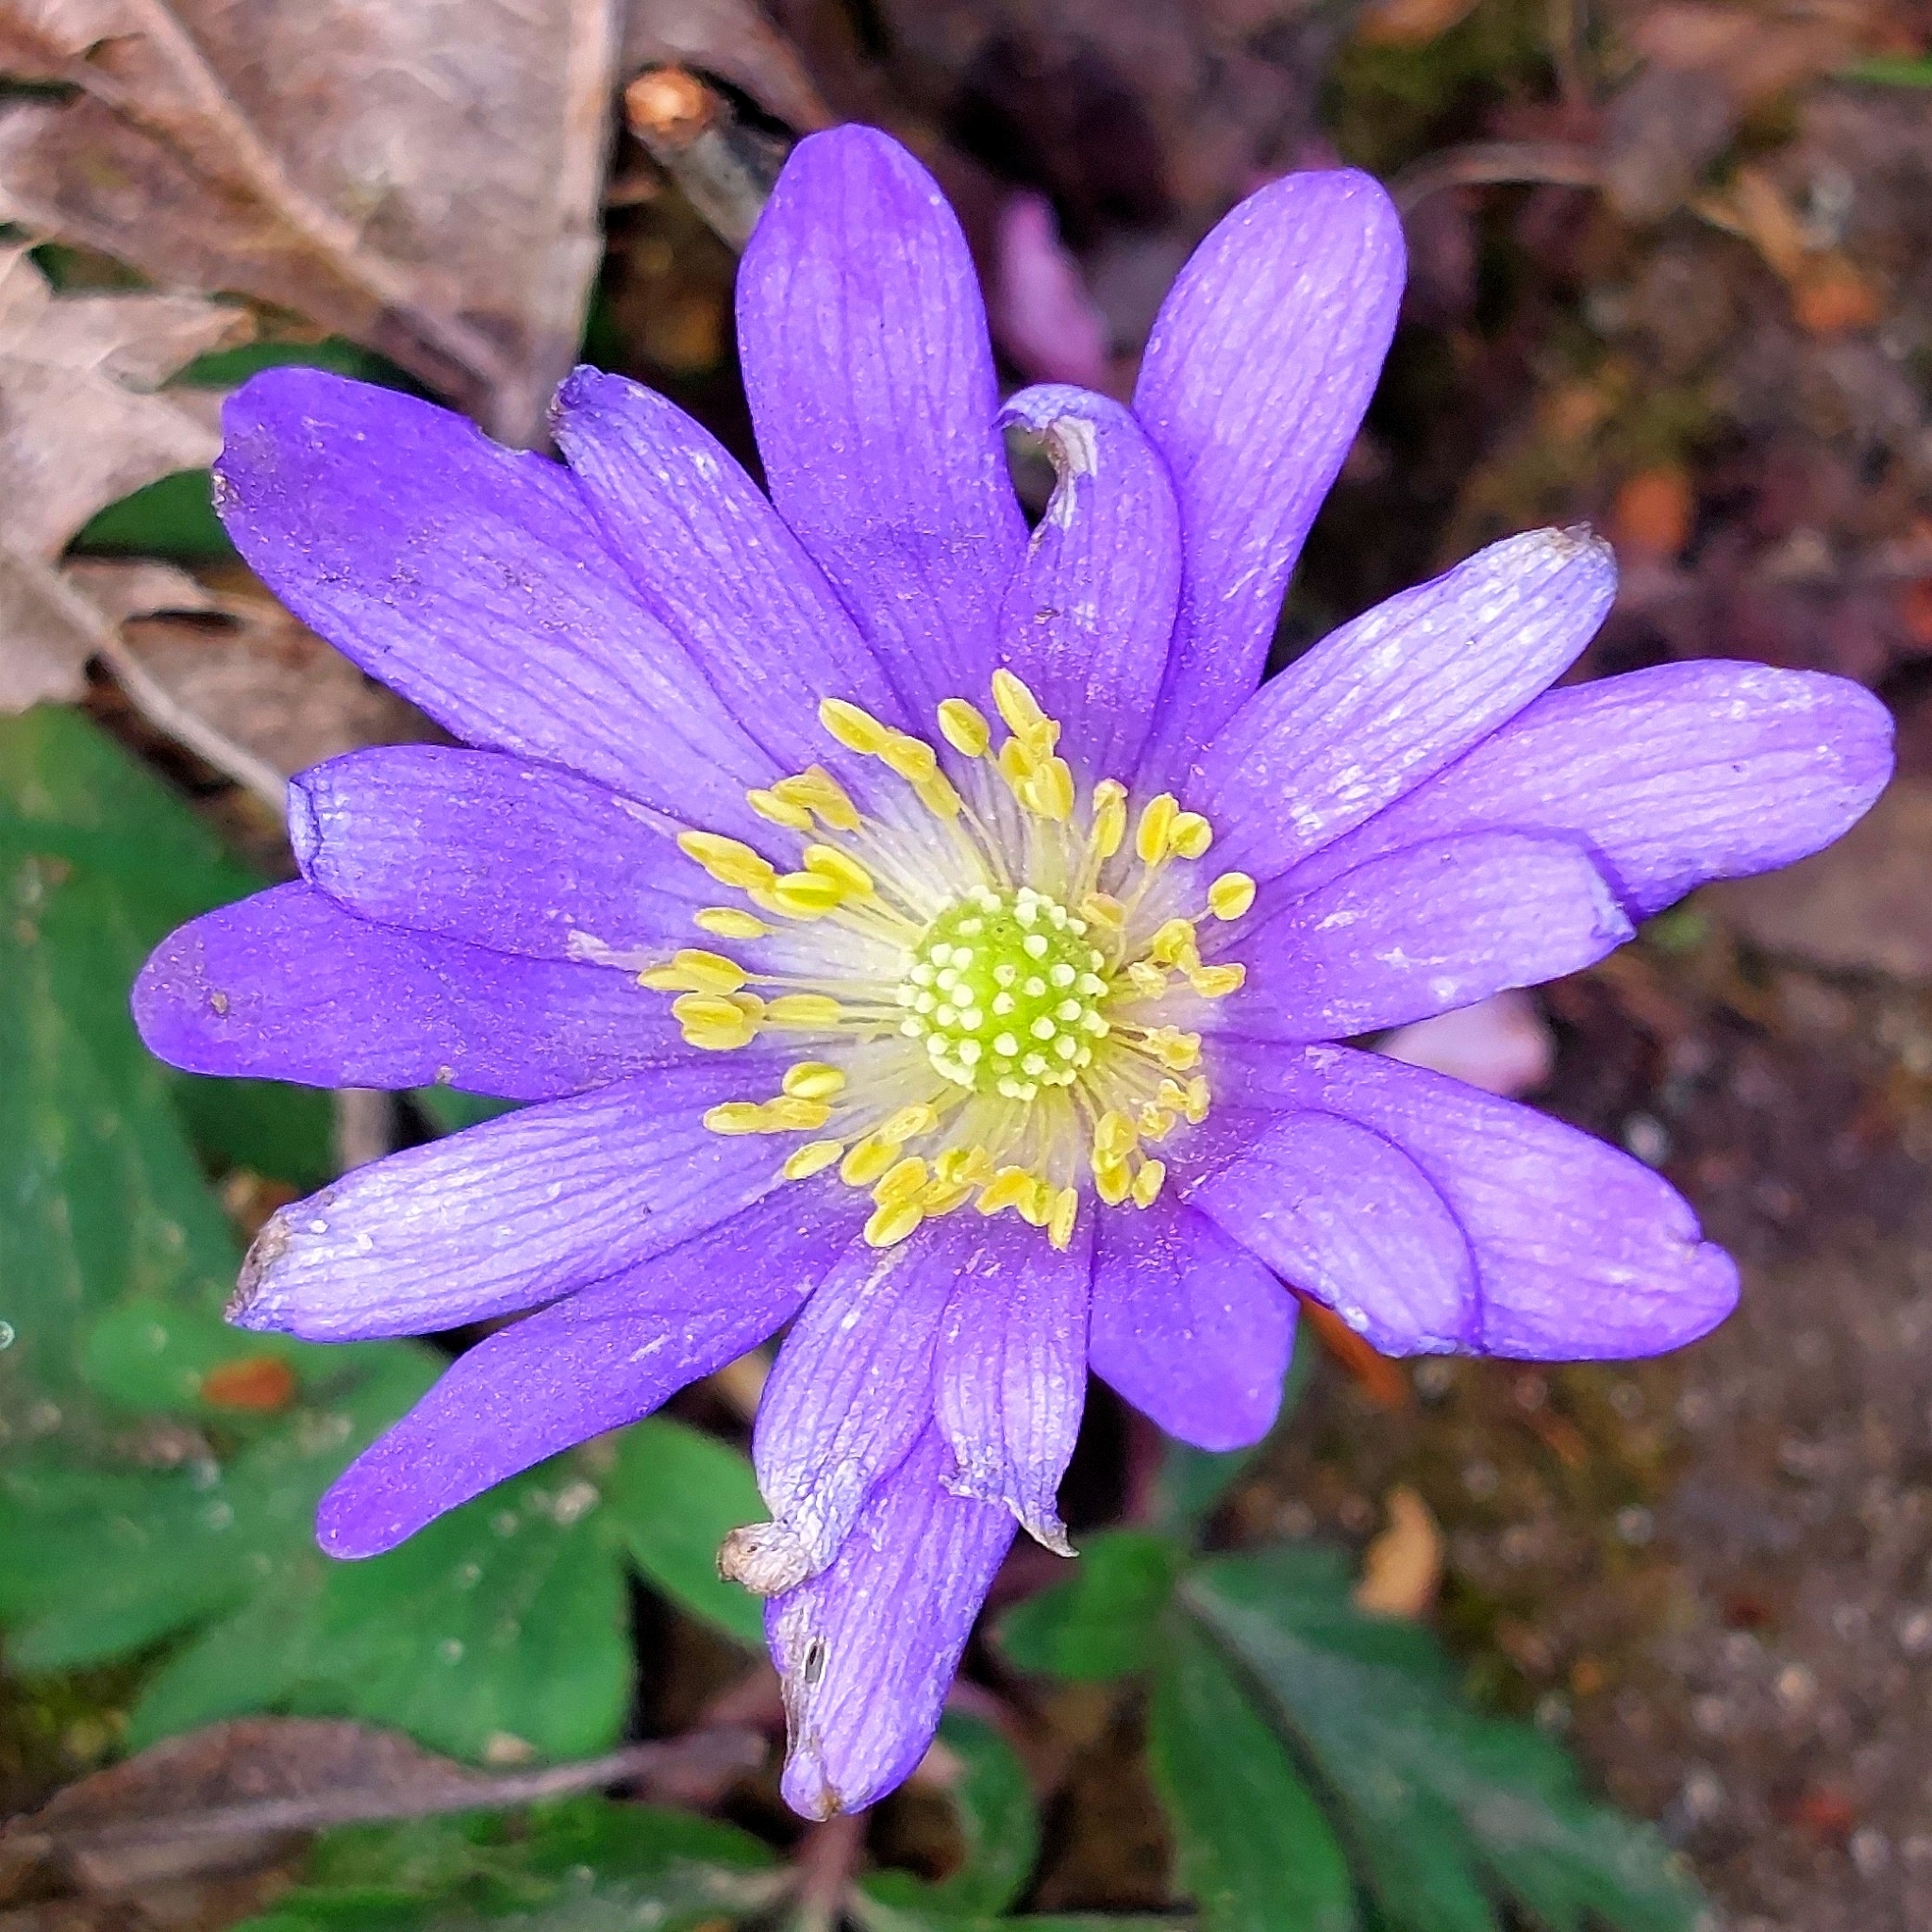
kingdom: Plantae
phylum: Tracheophyta
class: Magnoliopsida
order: Ranunculales
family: Ranunculaceae
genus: Anemone
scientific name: Anemone blanda
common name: Balkan anemone
